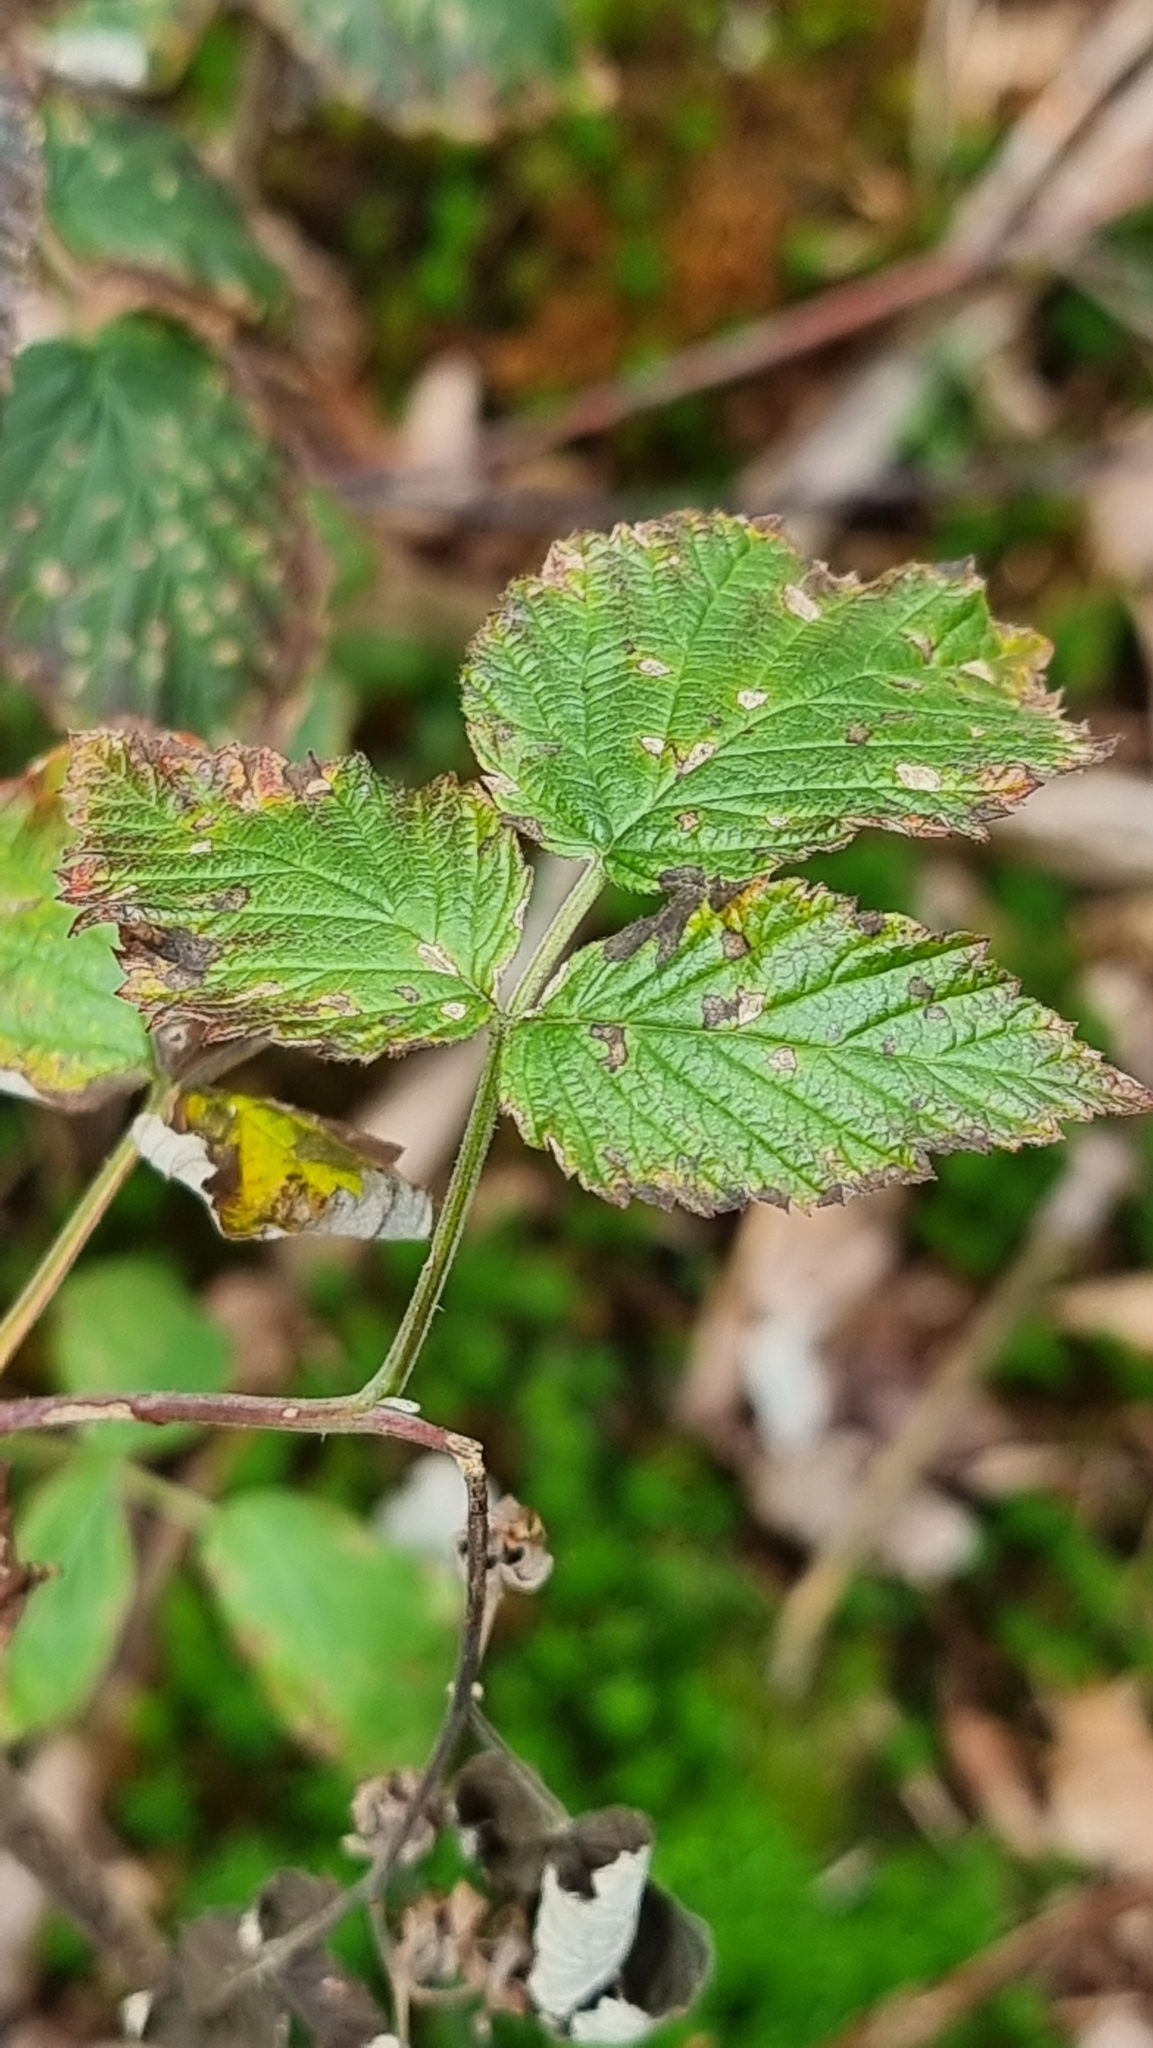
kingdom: Animalia
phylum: Arthropoda
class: Insecta
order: Diptera
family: Cecidomyiidae
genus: Lasioptera
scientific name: Lasioptera rubi
